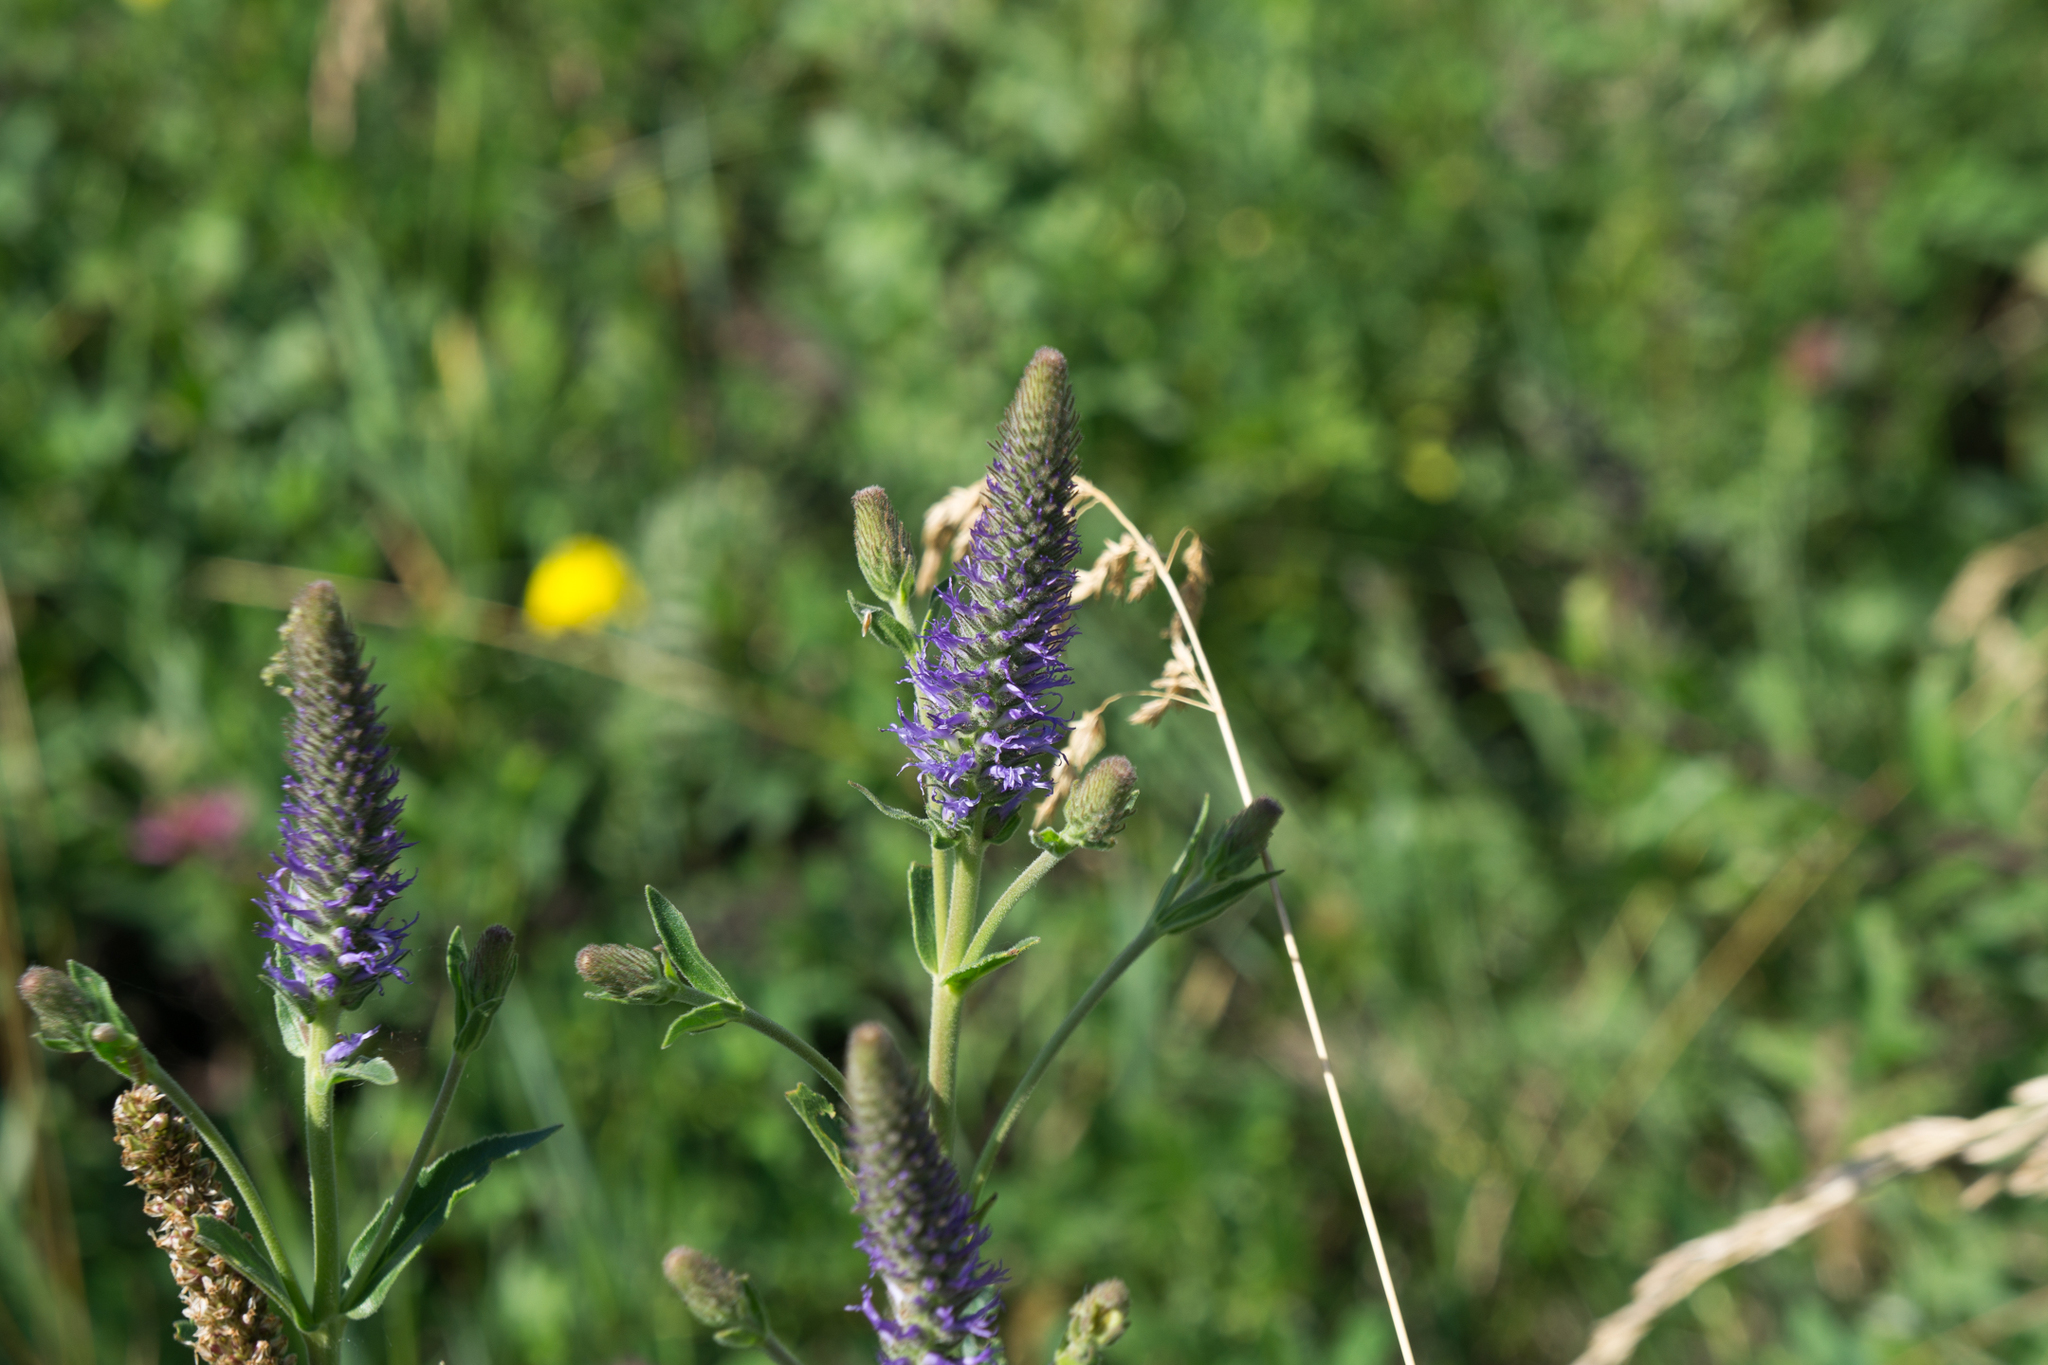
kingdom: Plantae
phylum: Tracheophyta
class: Magnoliopsida
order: Lamiales
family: Plantaginaceae
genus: Veronica
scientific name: Veronica orchidea
